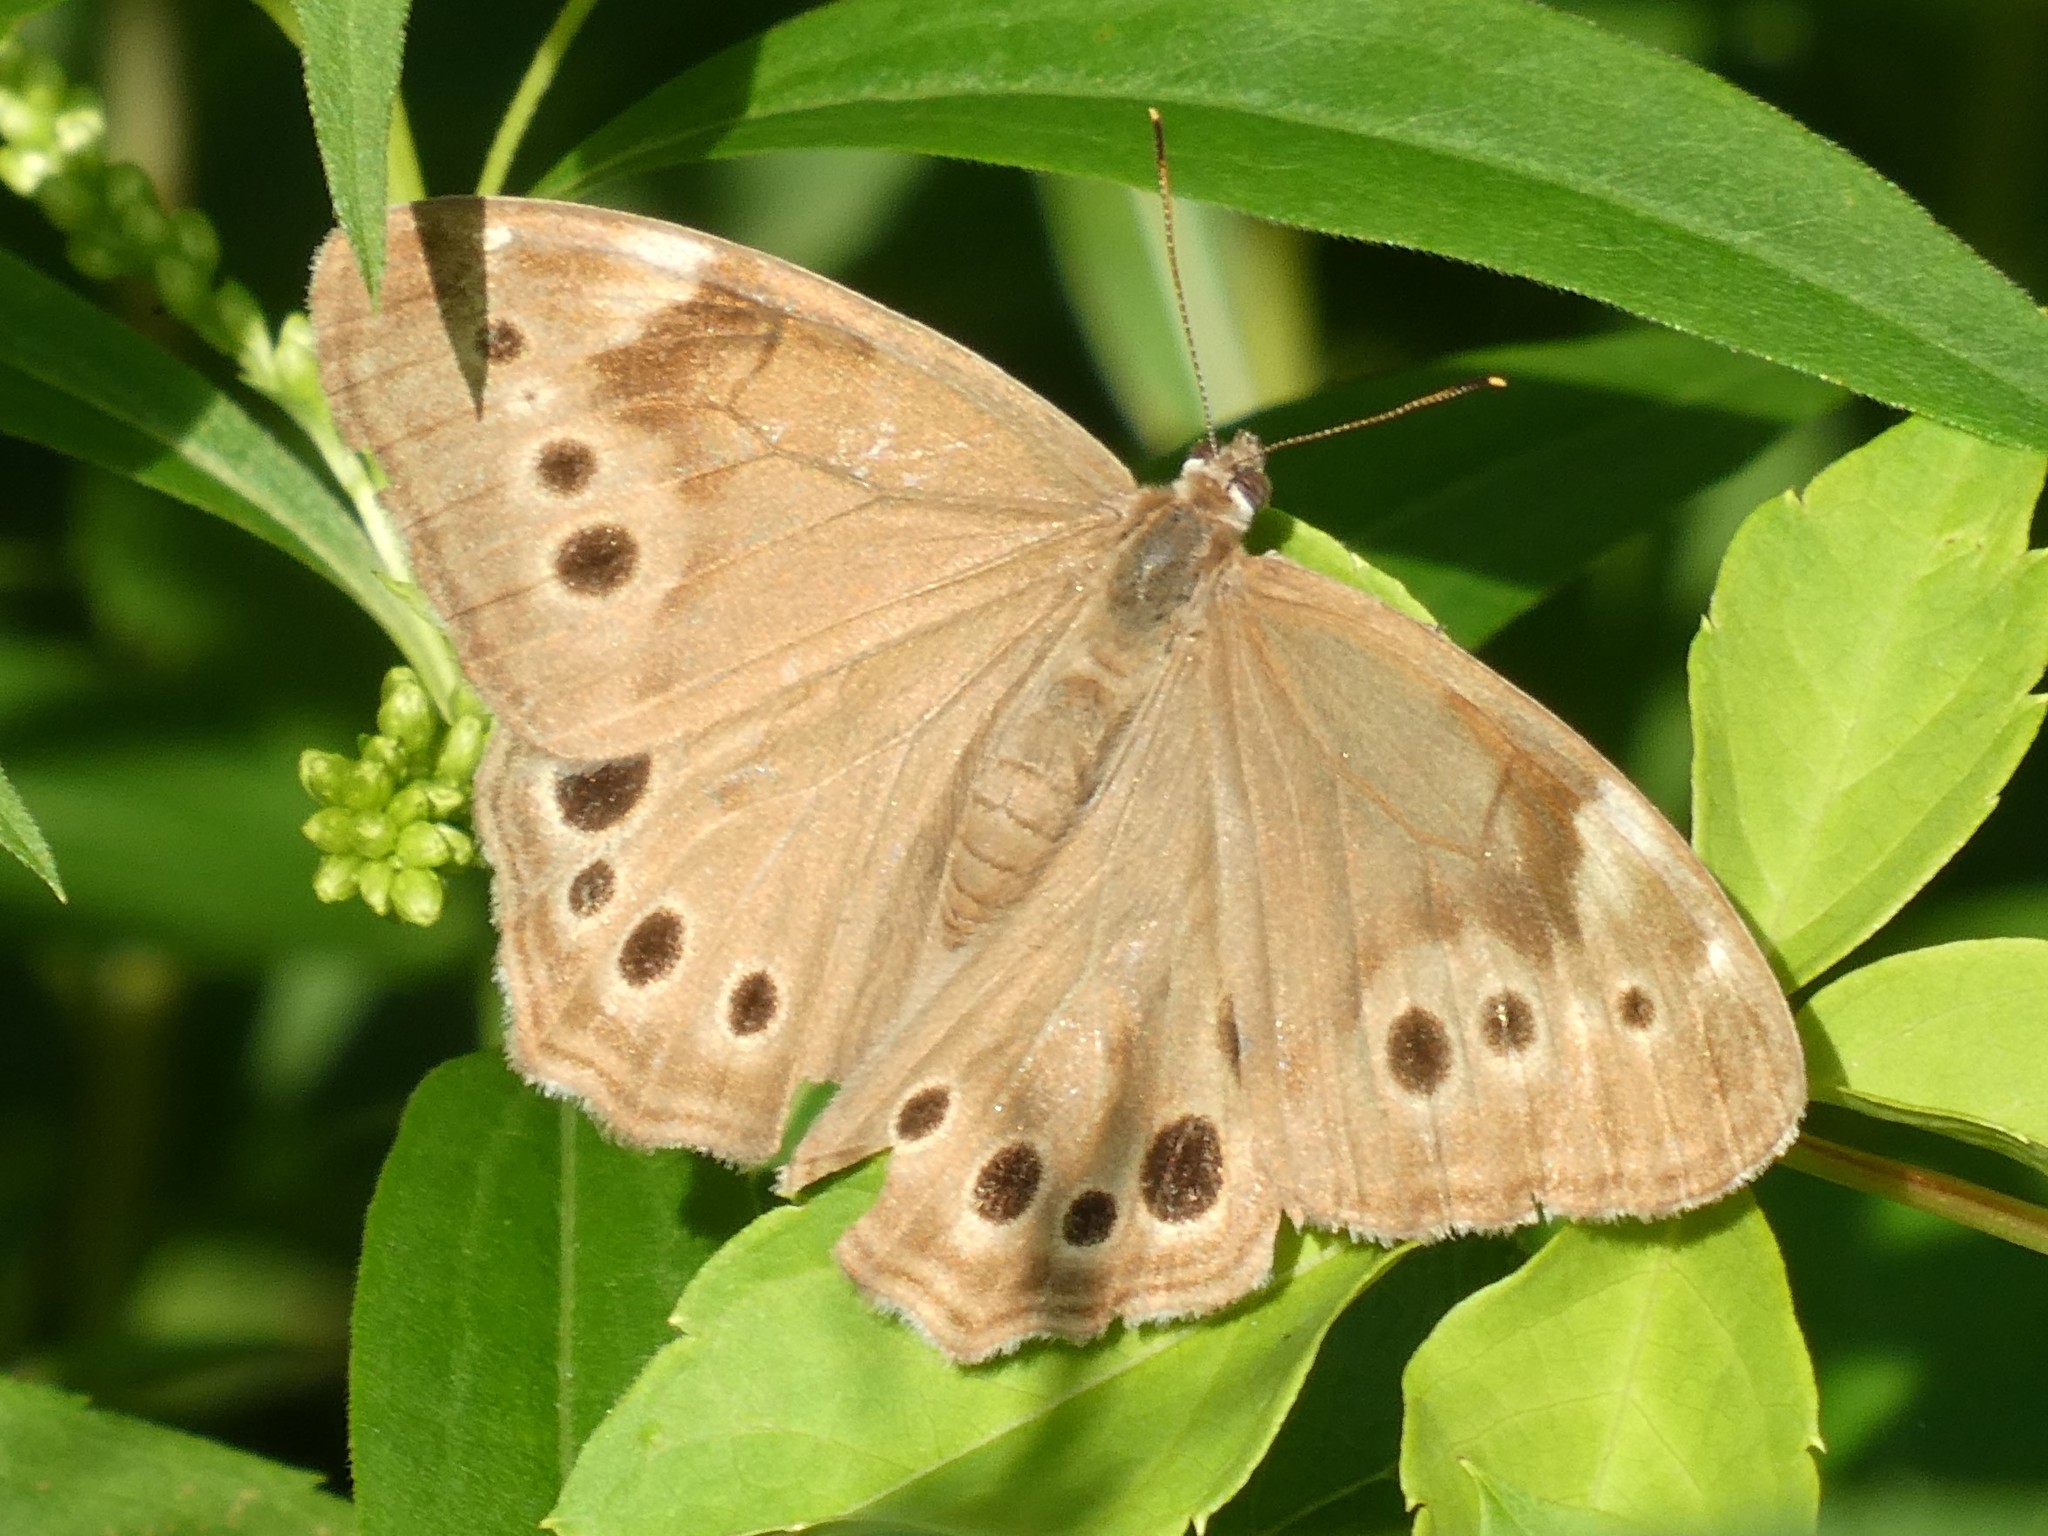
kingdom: Animalia
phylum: Arthropoda
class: Insecta
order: Lepidoptera
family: Nymphalidae
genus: Lethe
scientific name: Lethe anthedon
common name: Northern pearly-eye
